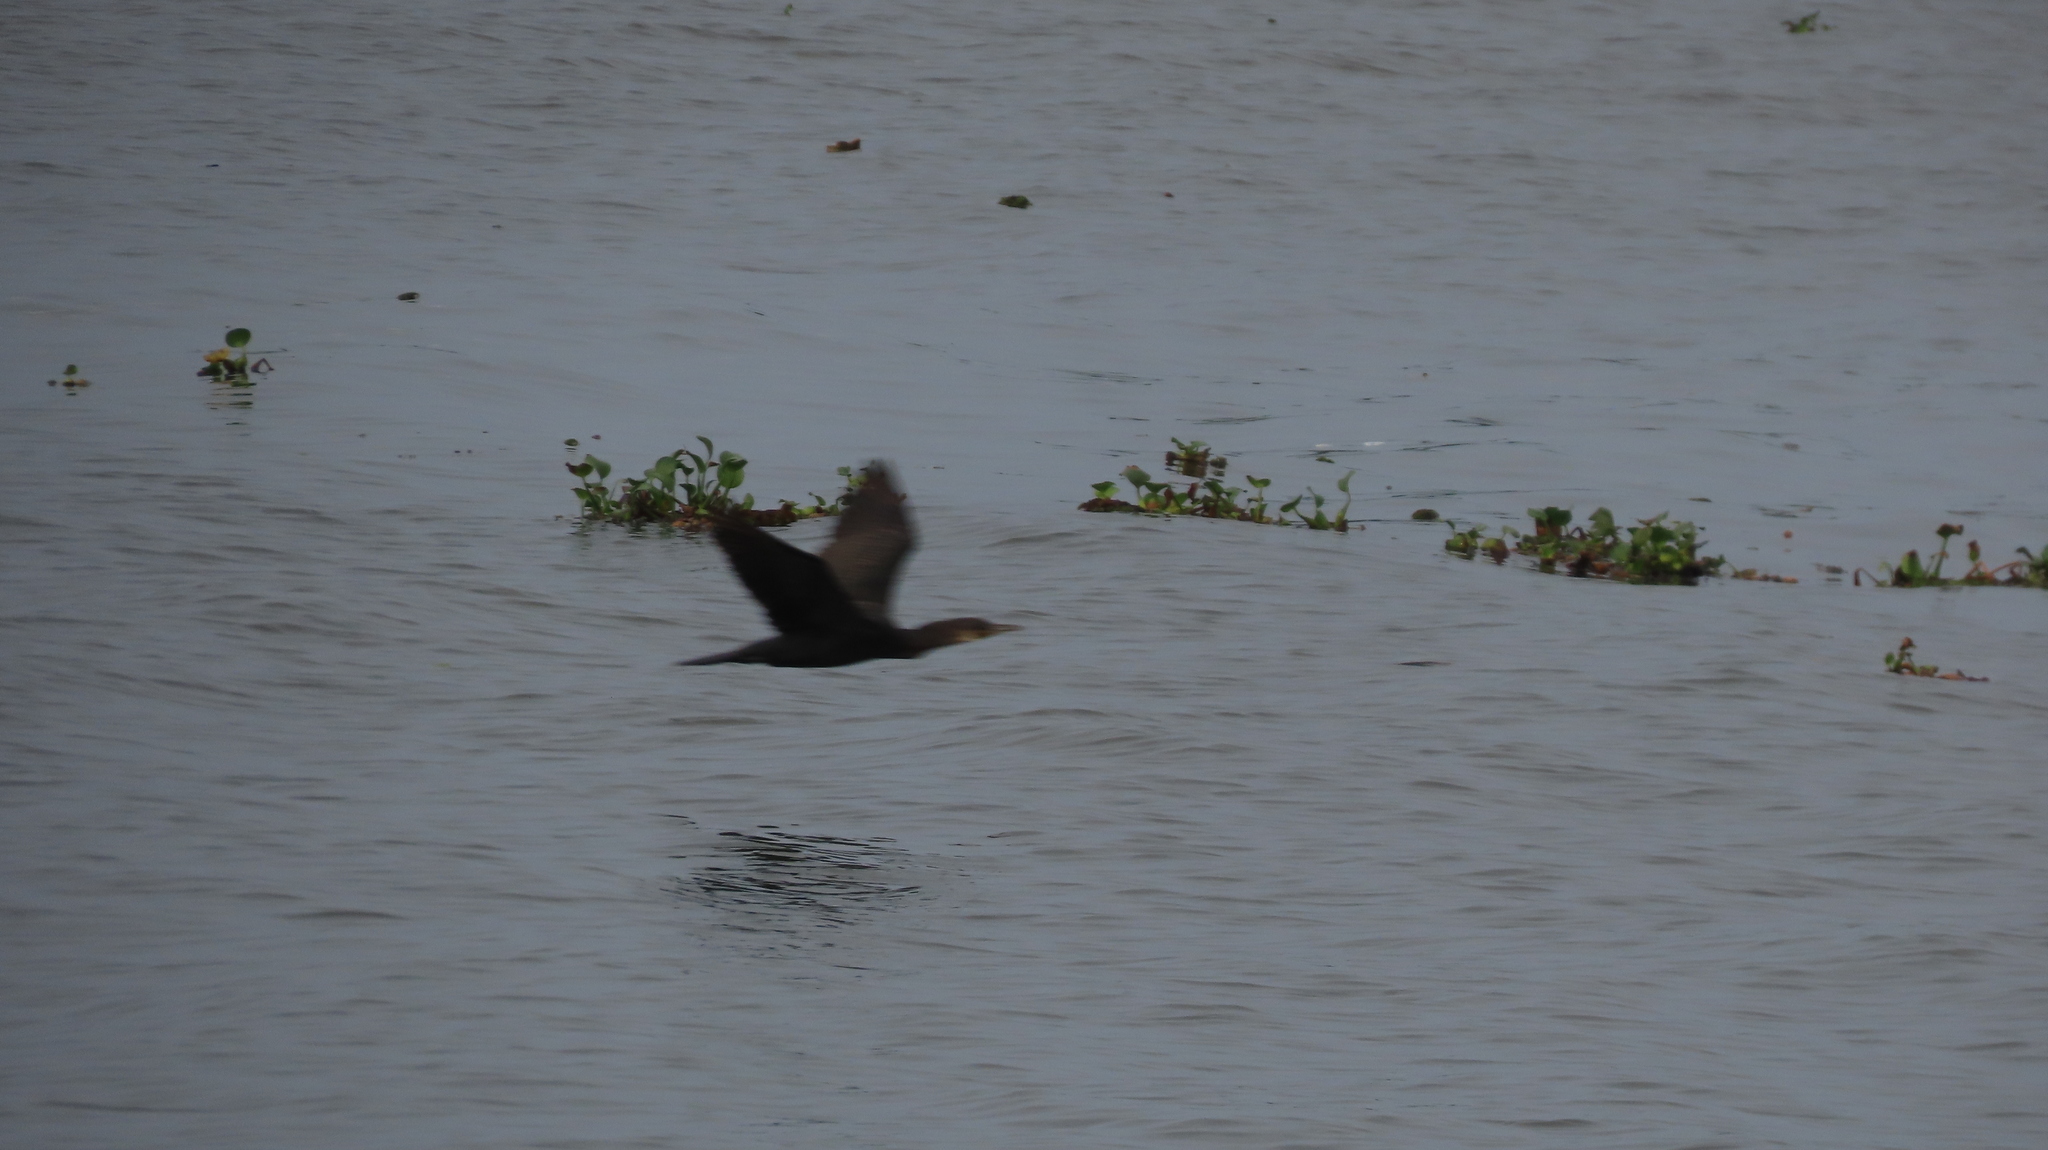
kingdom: Animalia
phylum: Chordata
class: Aves
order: Suliformes
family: Phalacrocoracidae
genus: Phalacrocorax
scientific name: Phalacrocorax fuscicollis
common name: Indian cormorant
